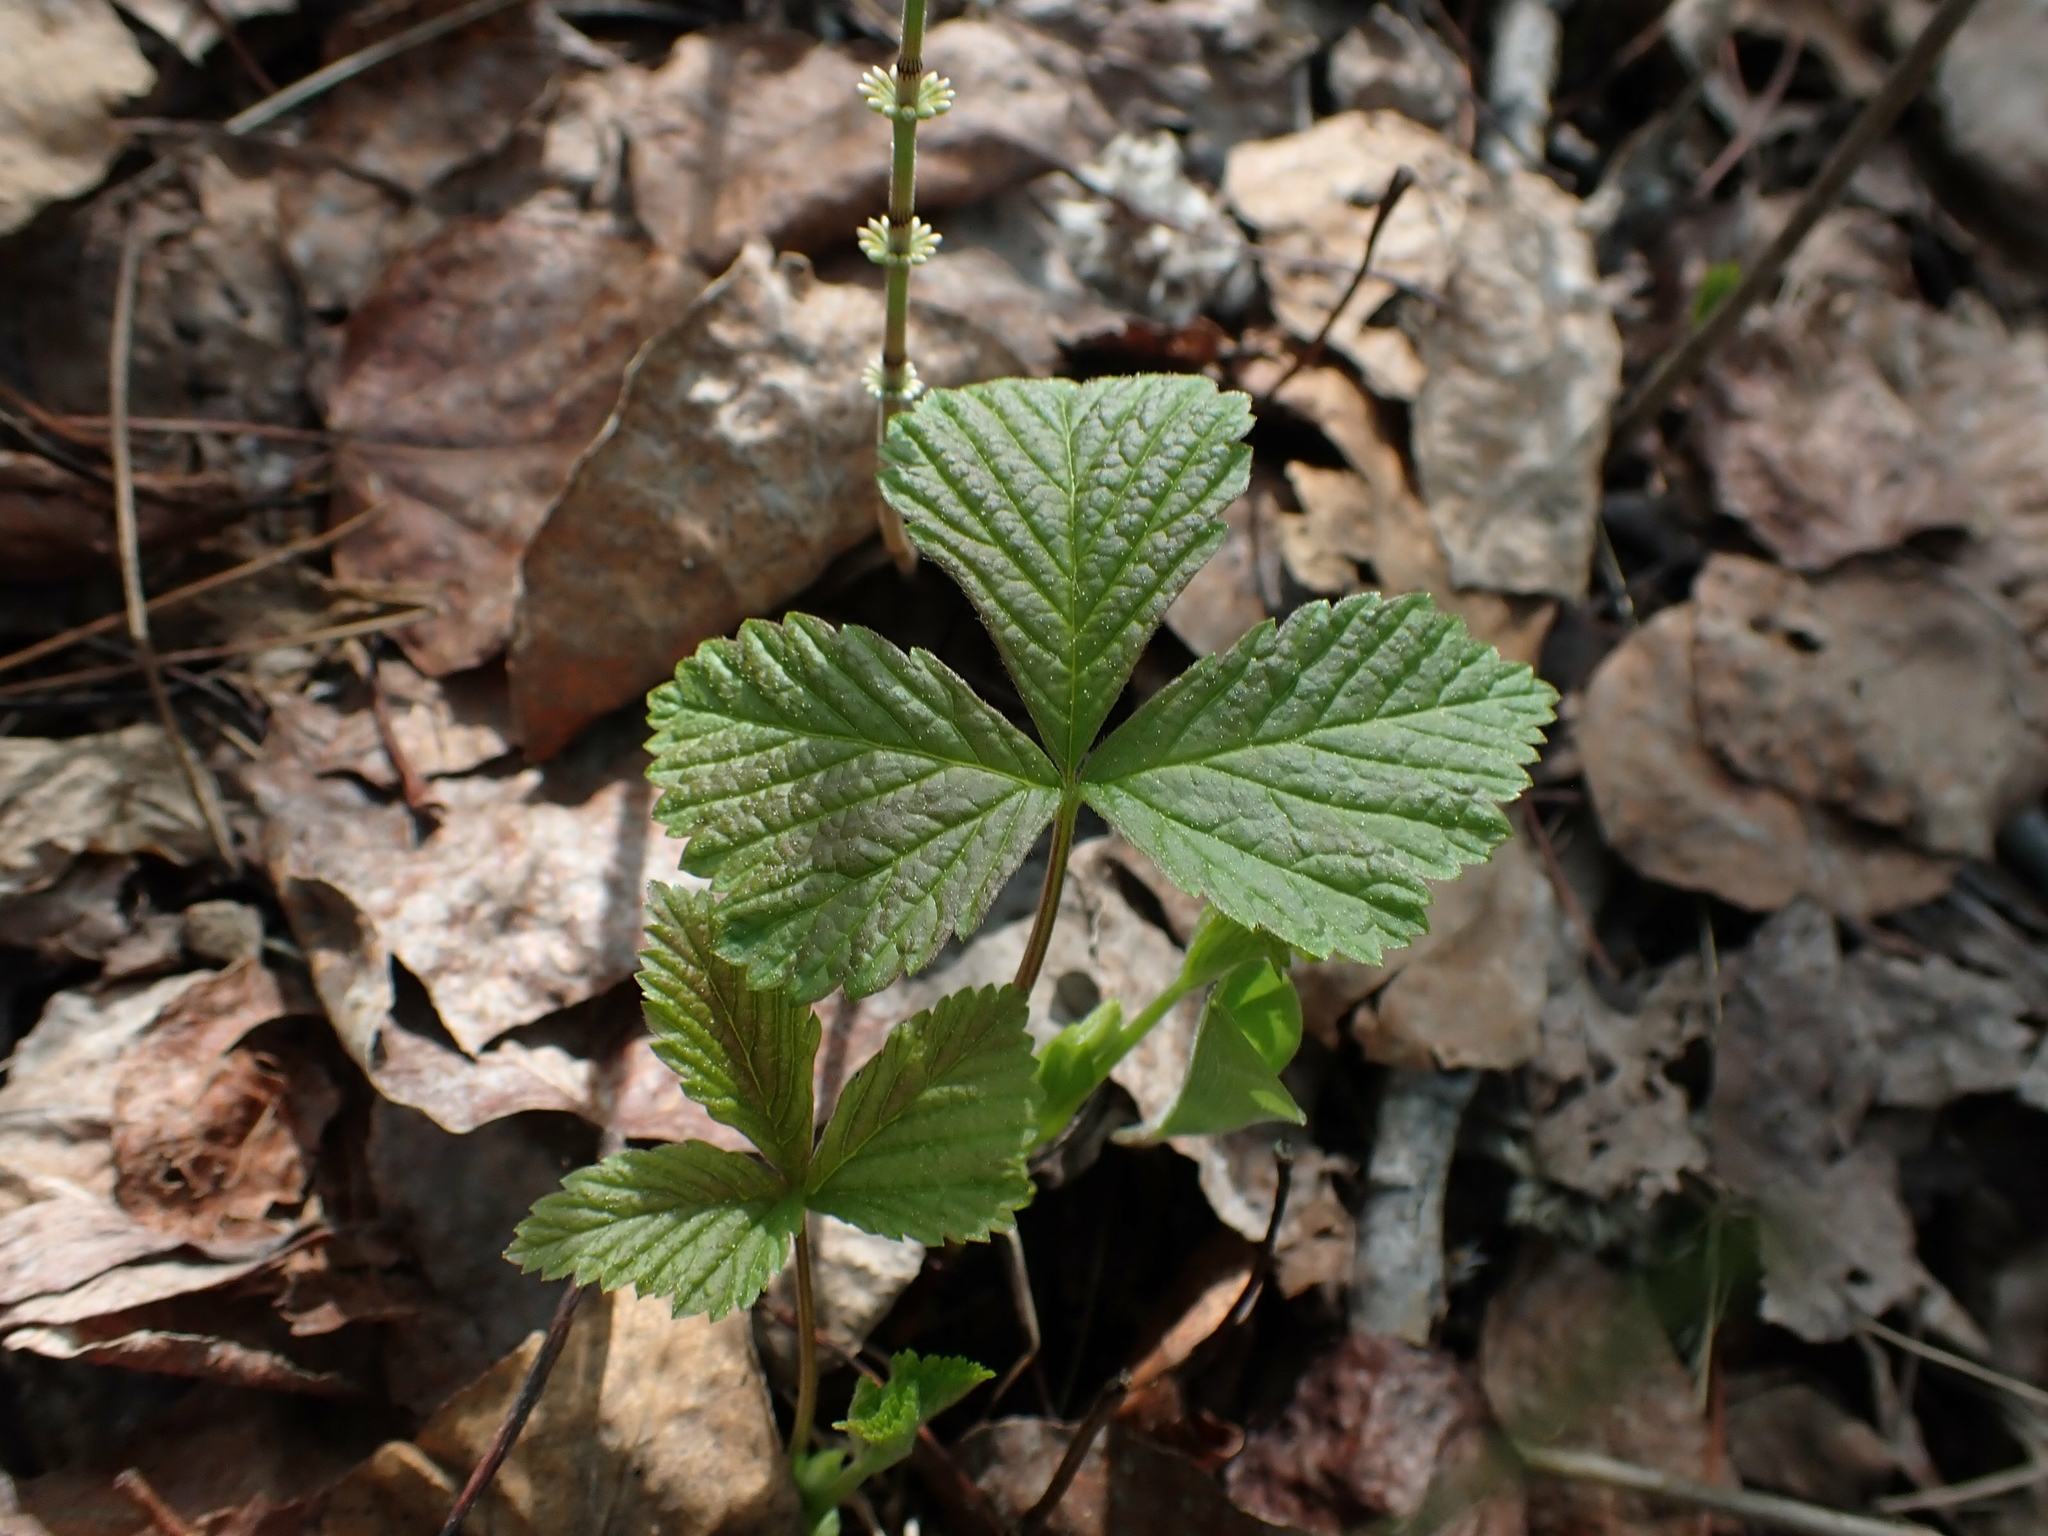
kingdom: Plantae
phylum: Tracheophyta
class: Magnoliopsida
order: Rosales
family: Rosaceae
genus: Rubus
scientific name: Rubus pubescens
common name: Dwarf raspberry
